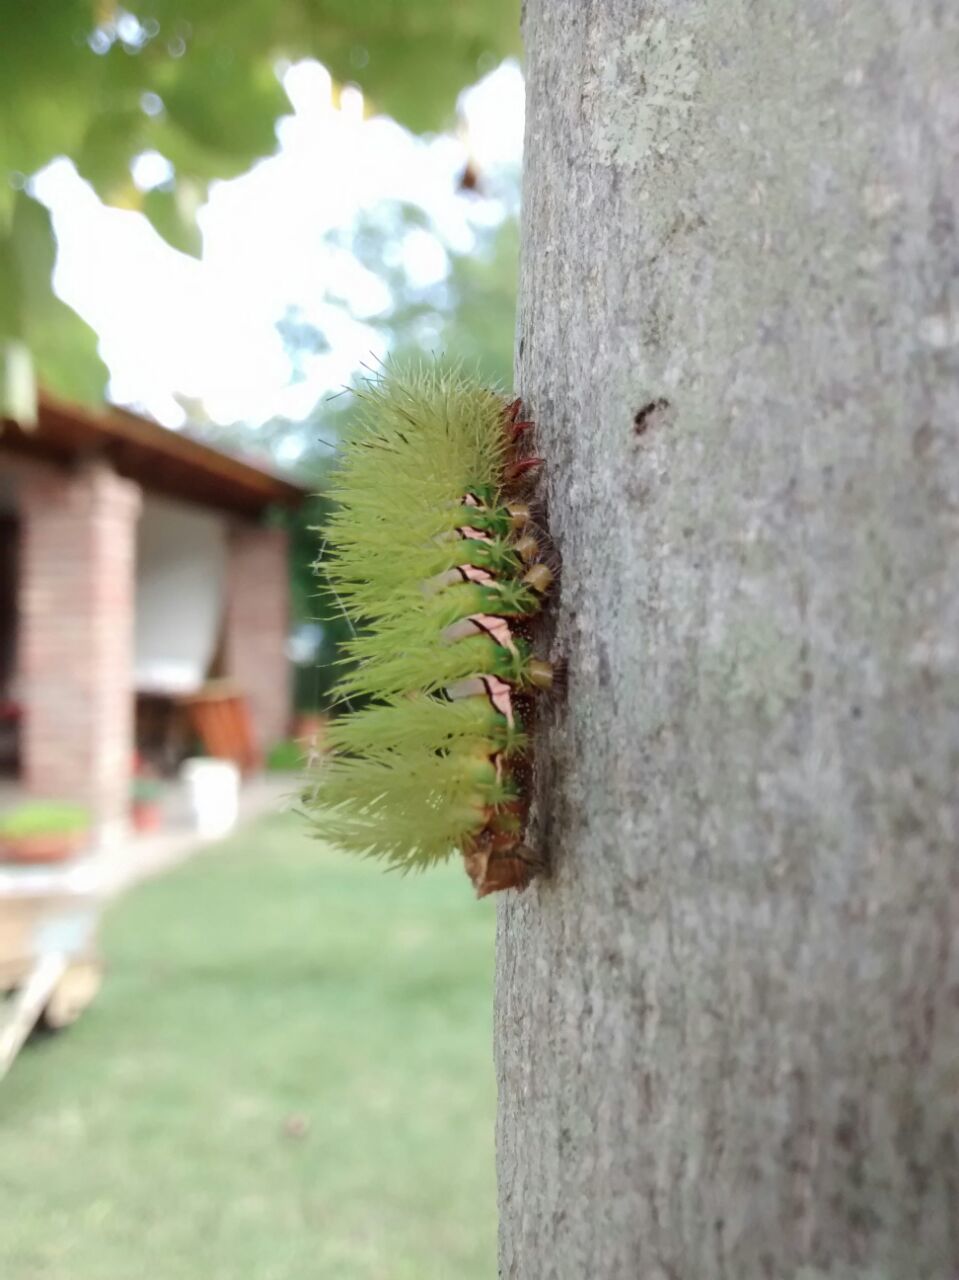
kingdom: Animalia
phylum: Arthropoda
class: Insecta
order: Lepidoptera
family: Saturniidae
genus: Automeris
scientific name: Automeris naranja
